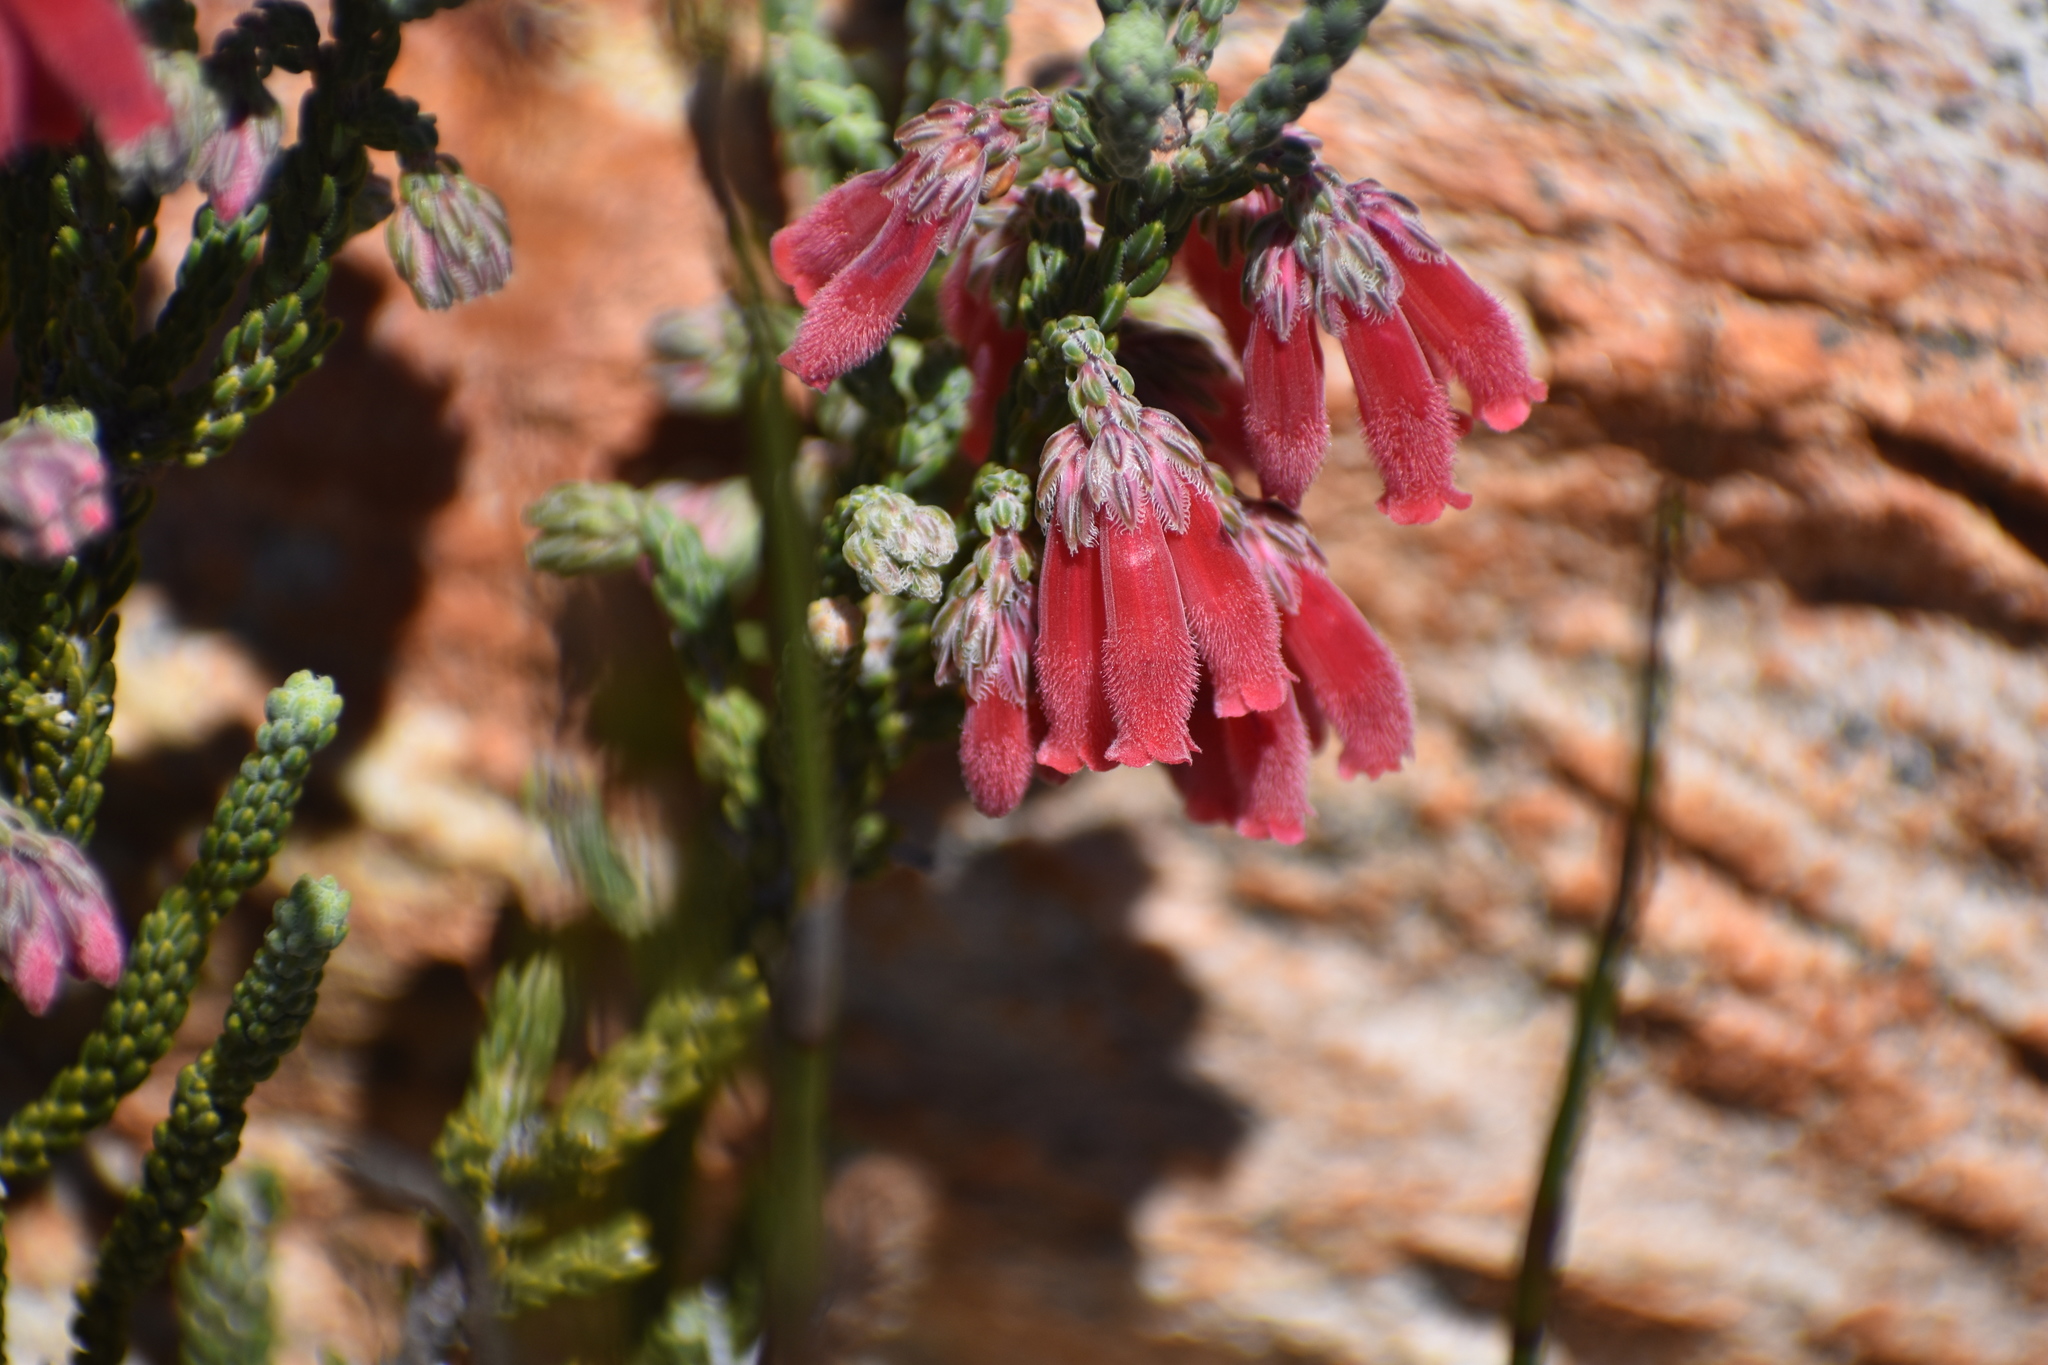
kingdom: Plantae
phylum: Tracheophyta
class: Magnoliopsida
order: Ericales
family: Ericaceae
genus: Erica
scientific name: Erica strigilifolia
